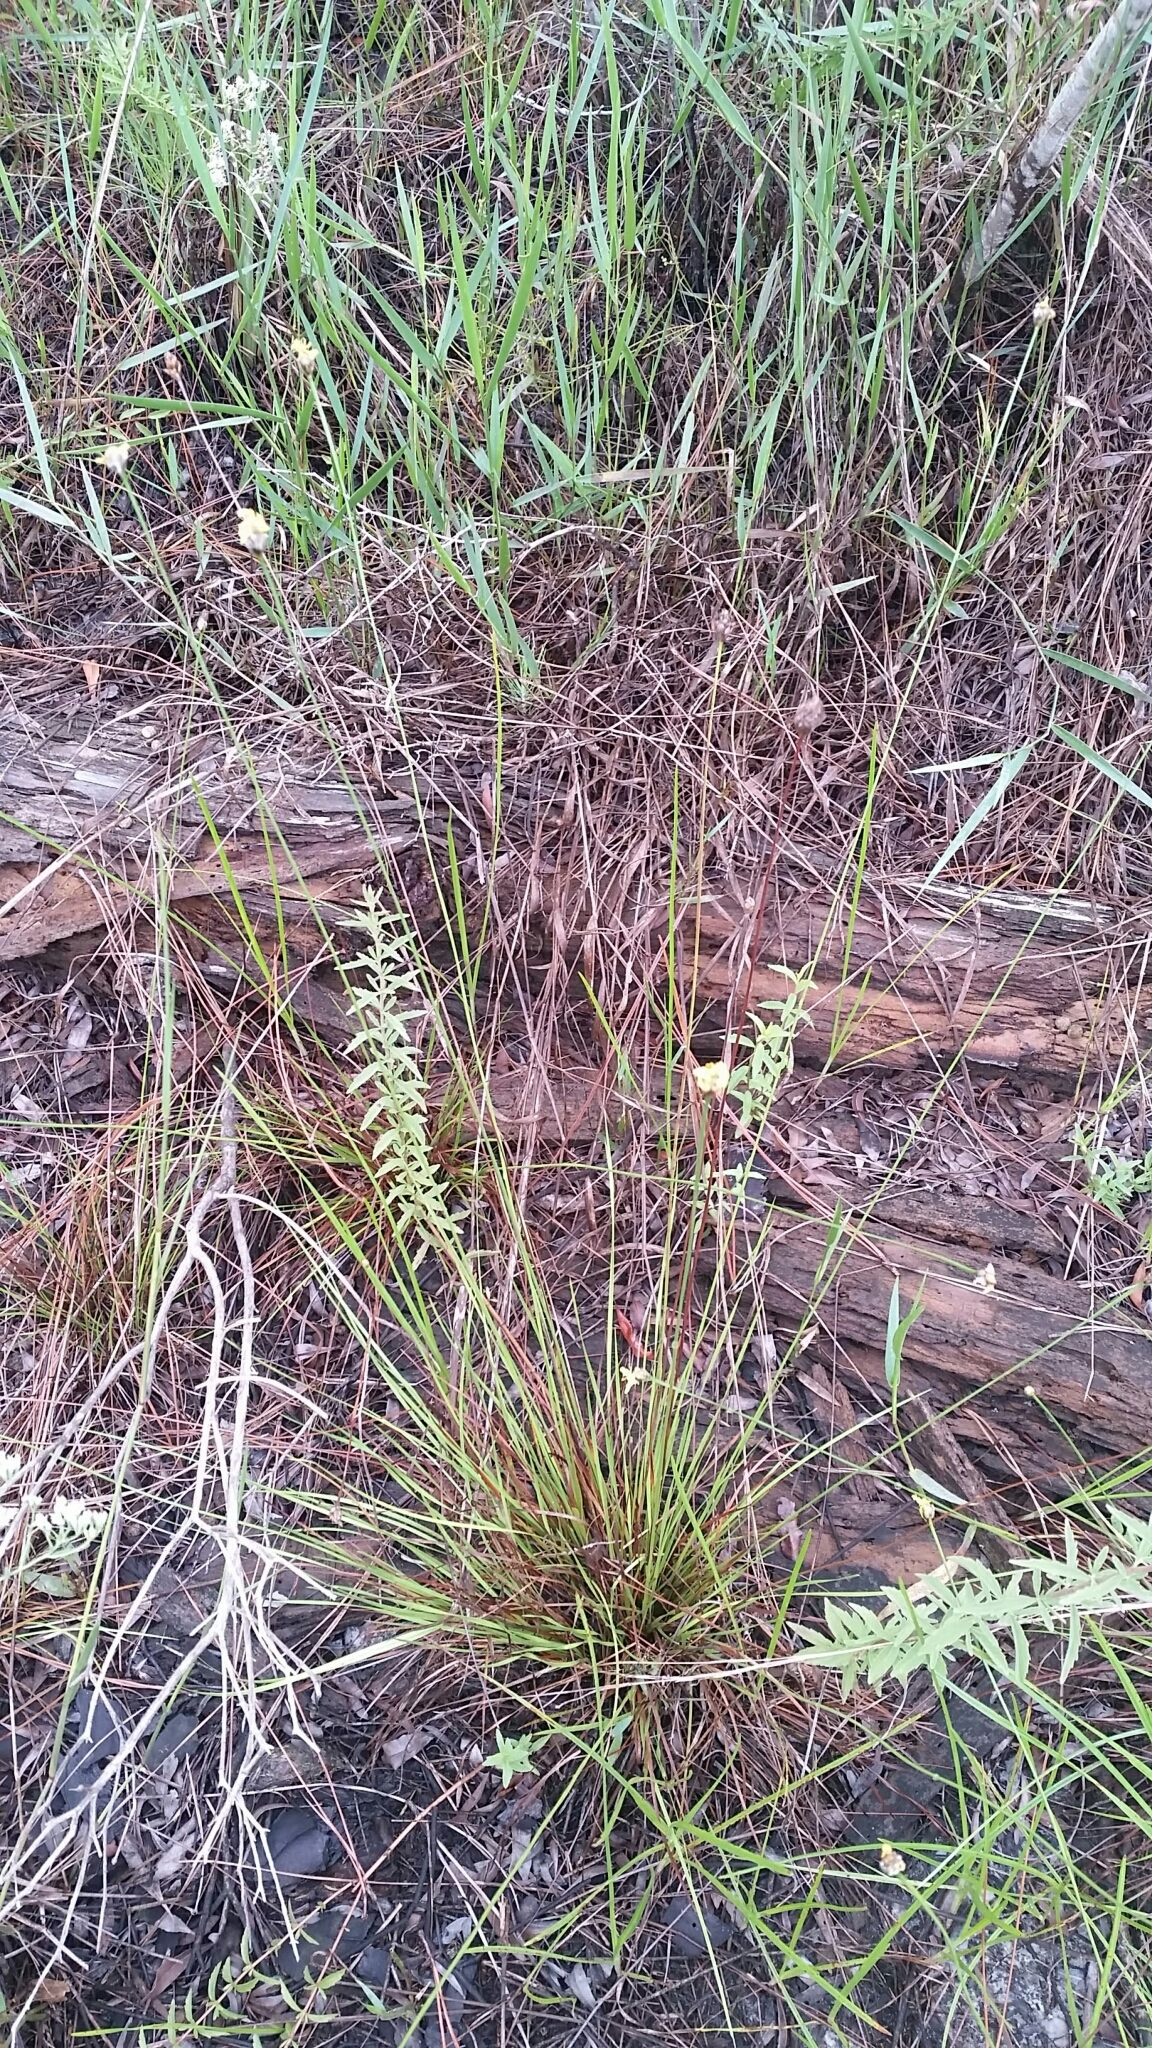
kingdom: Plantae
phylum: Tracheophyta
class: Liliopsida
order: Poales
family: Xyridaceae
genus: Xyris
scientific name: Xyris elliottii
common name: Elliot's yelloweyed grass
